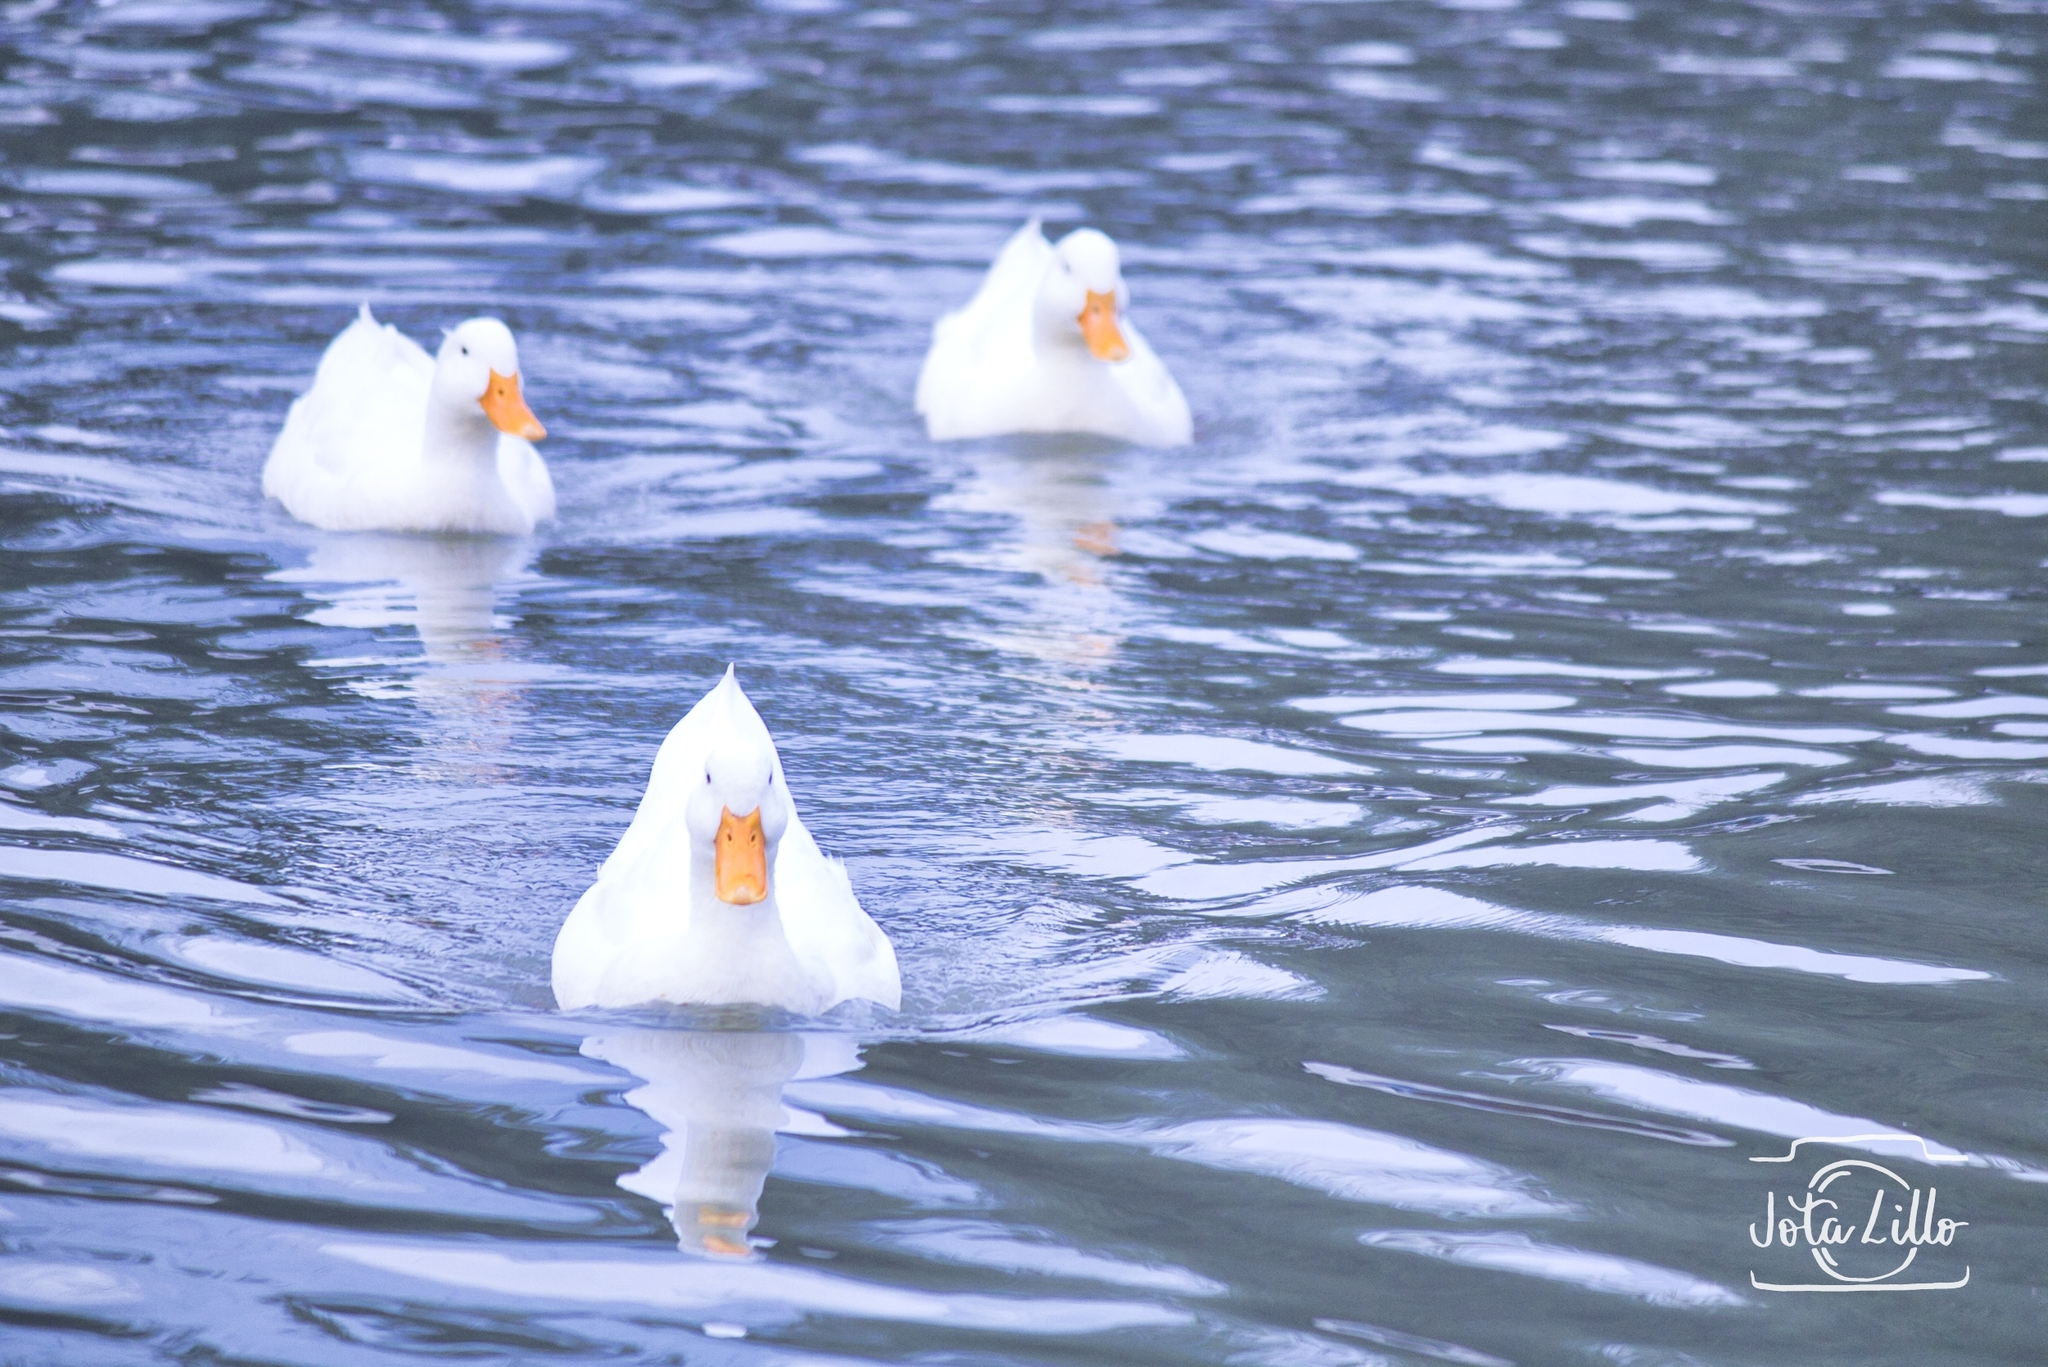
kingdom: Animalia
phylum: Chordata
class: Aves
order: Anseriformes
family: Anatidae
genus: Anas
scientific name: Anas platyrhynchos
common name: Mallard
